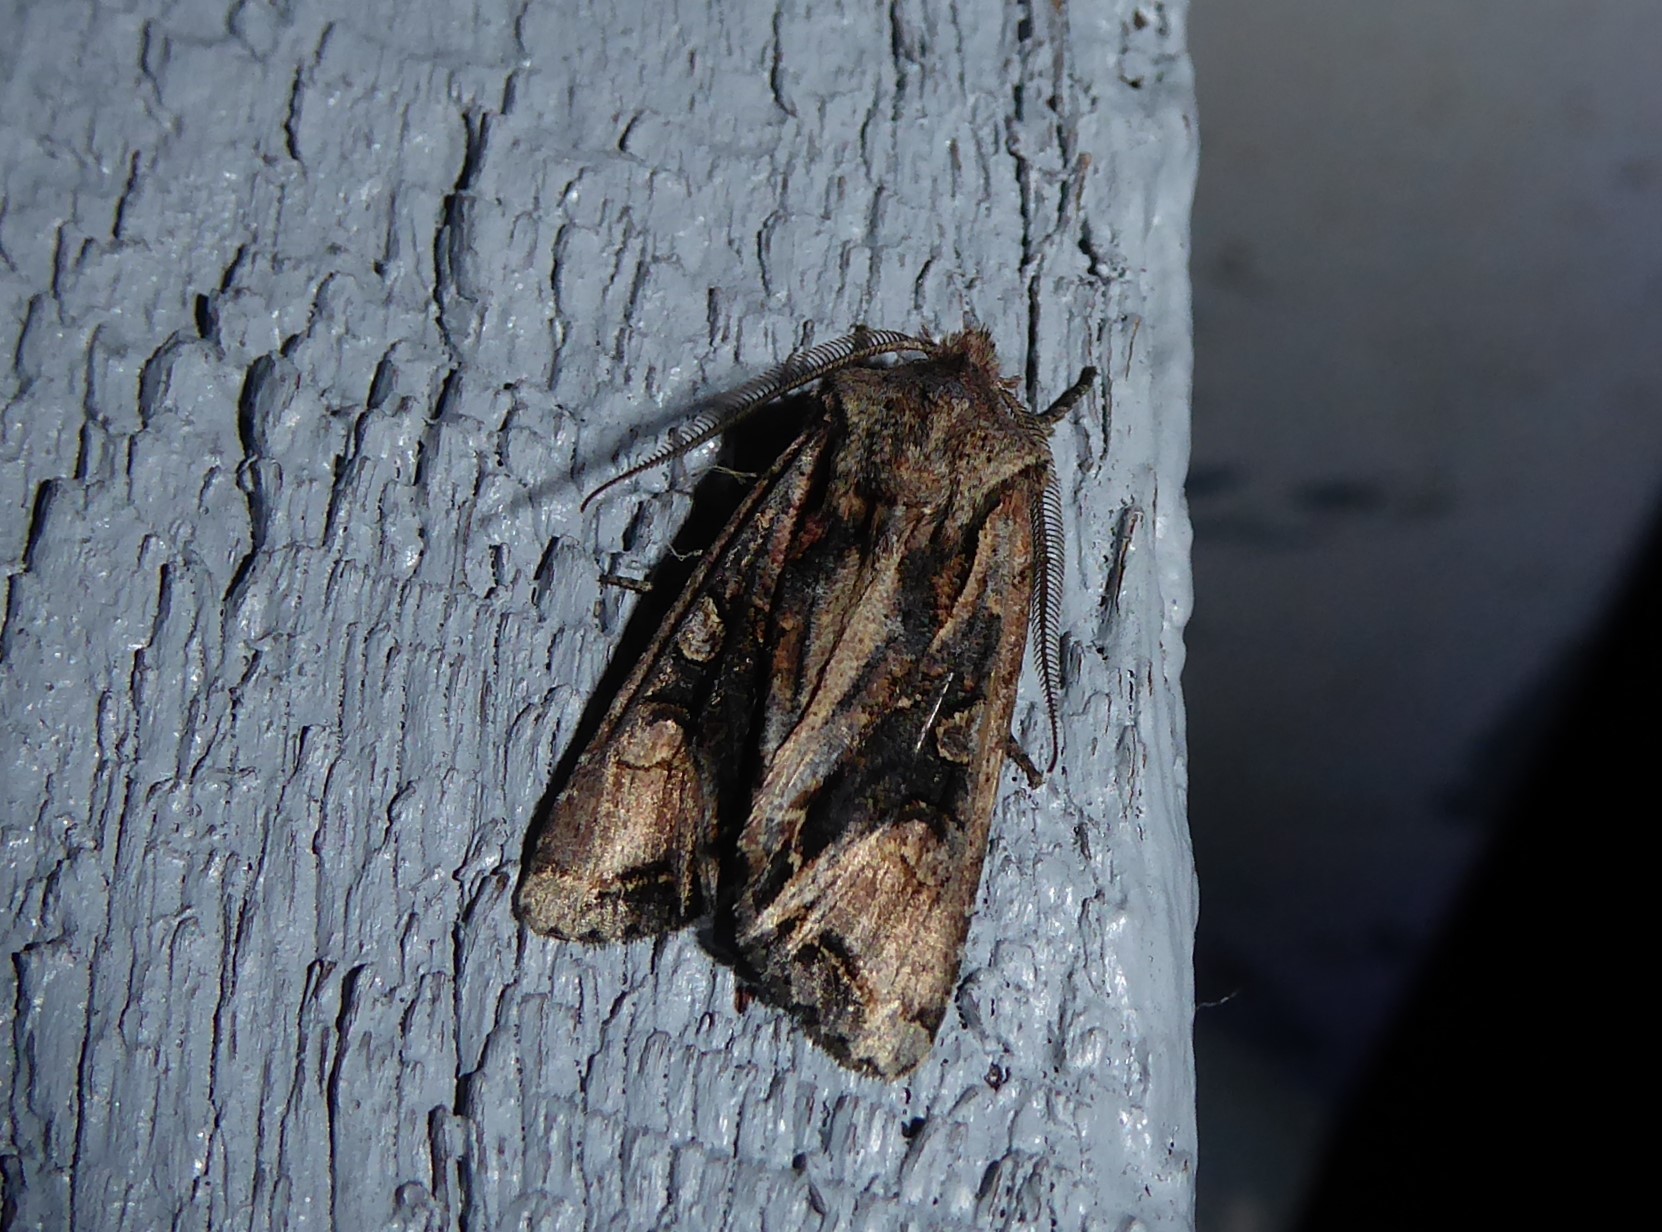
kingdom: Animalia
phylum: Arthropoda
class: Insecta
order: Lepidoptera
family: Noctuidae
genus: Ichneutica
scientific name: Ichneutica
